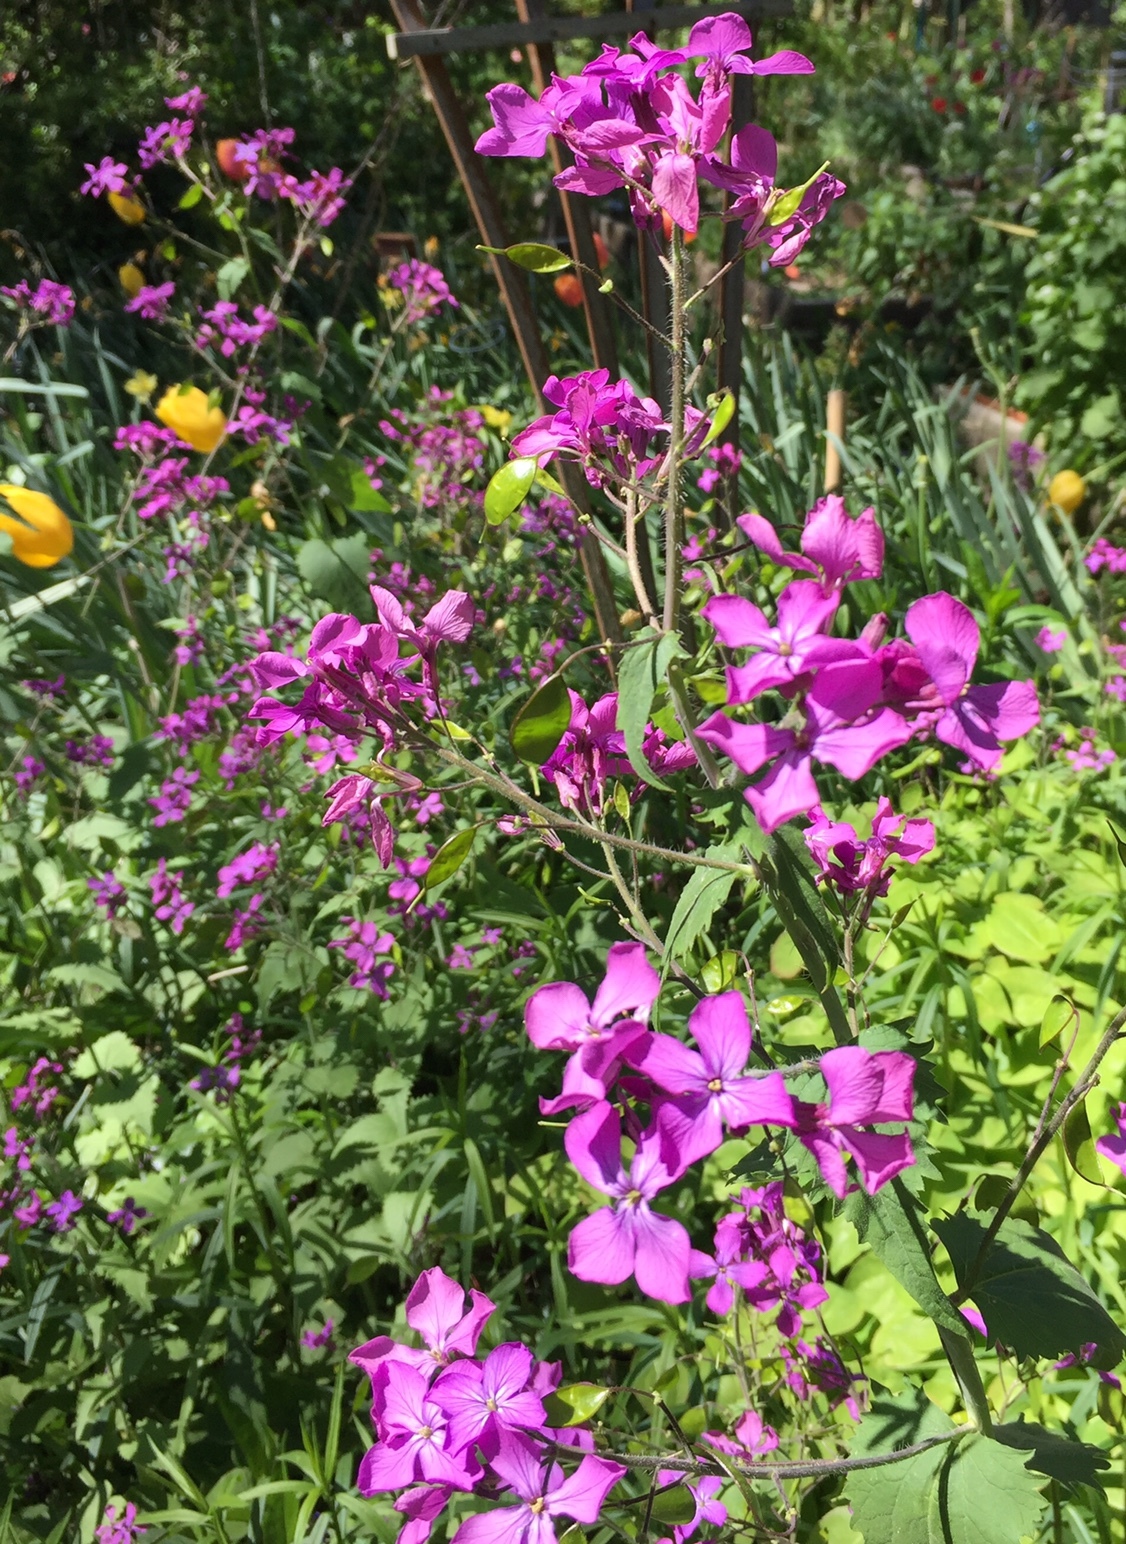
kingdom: Plantae
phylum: Tracheophyta
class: Magnoliopsida
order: Brassicales
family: Brassicaceae
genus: Lunaria
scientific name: Lunaria annua
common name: Honesty
